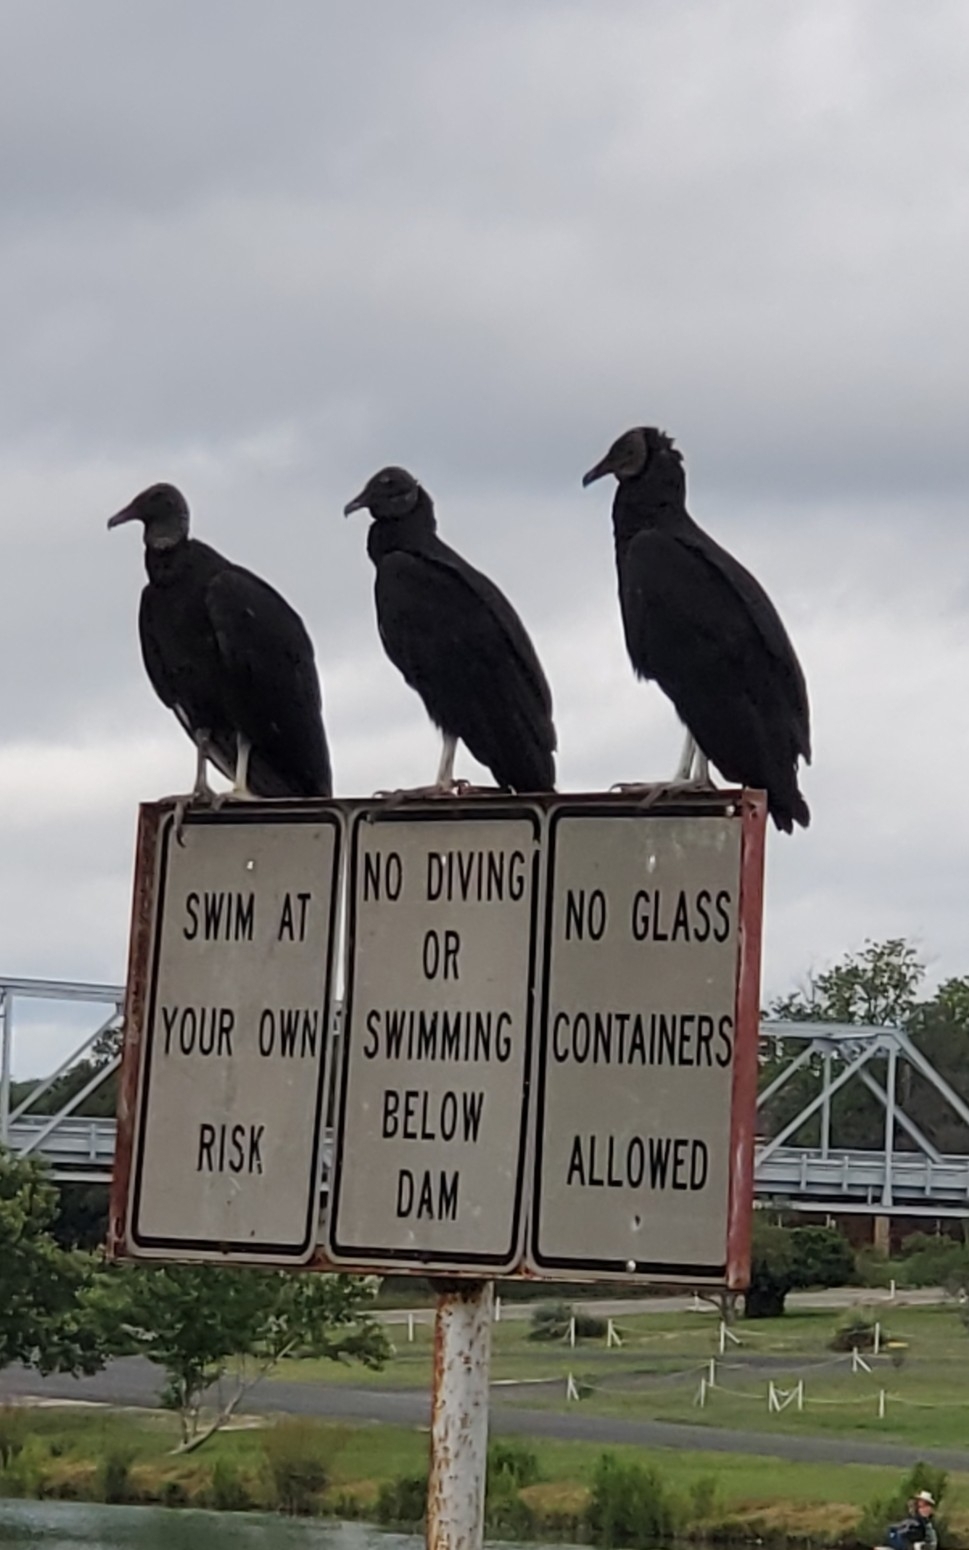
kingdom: Animalia
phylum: Chordata
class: Aves
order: Accipitriformes
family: Cathartidae
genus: Coragyps
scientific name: Coragyps atratus
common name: Black vulture
